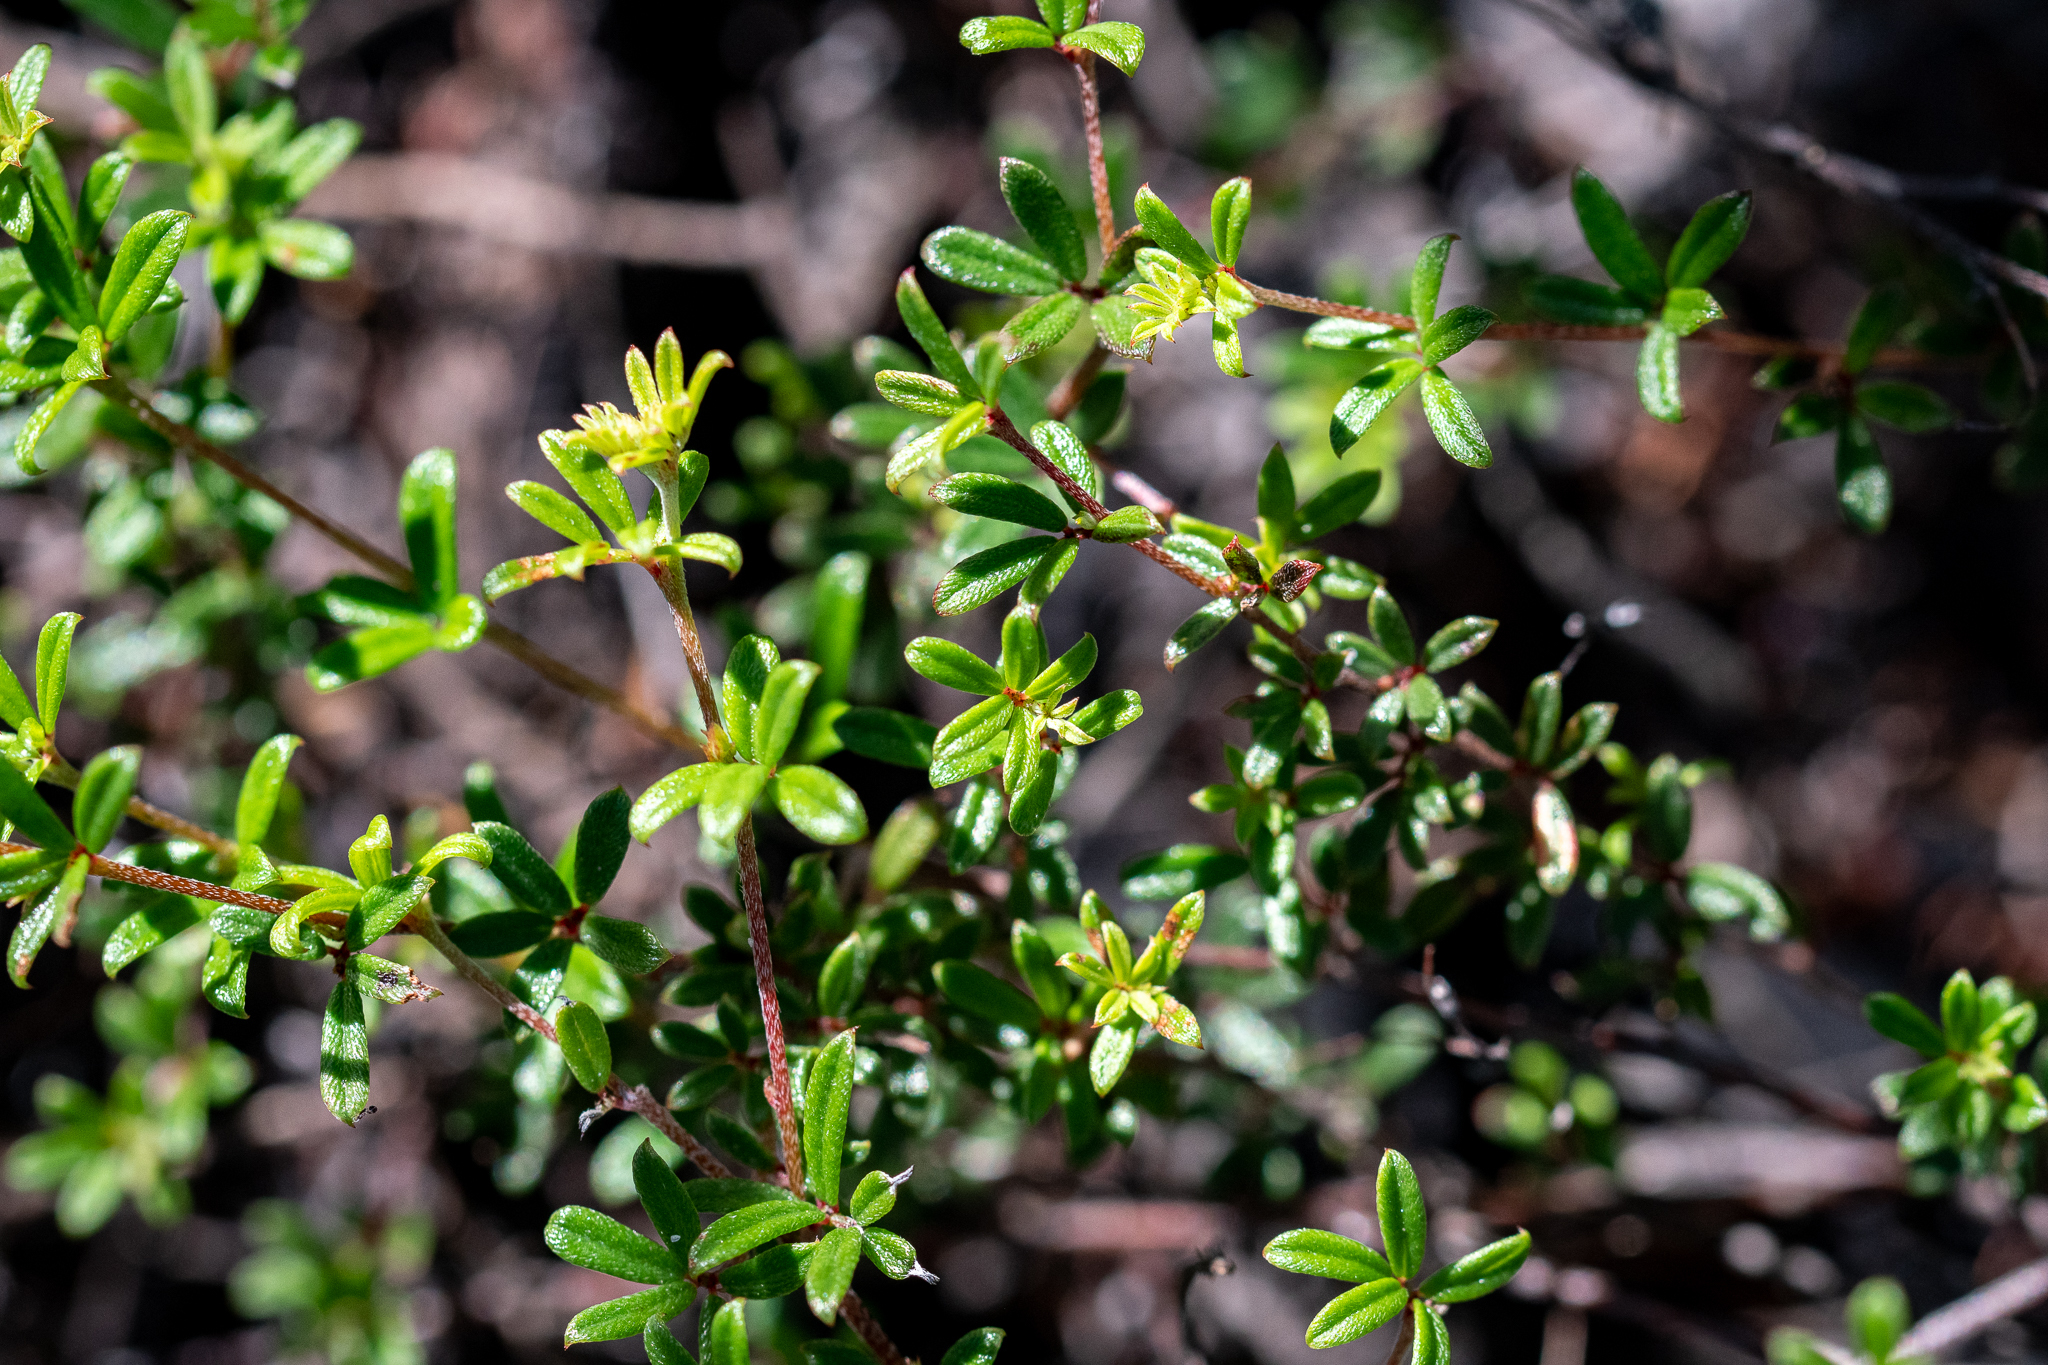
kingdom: Plantae
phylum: Tracheophyta
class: Magnoliopsida
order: Fabales
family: Fabaceae
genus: Indigofera
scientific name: Indigofera angustifolia
